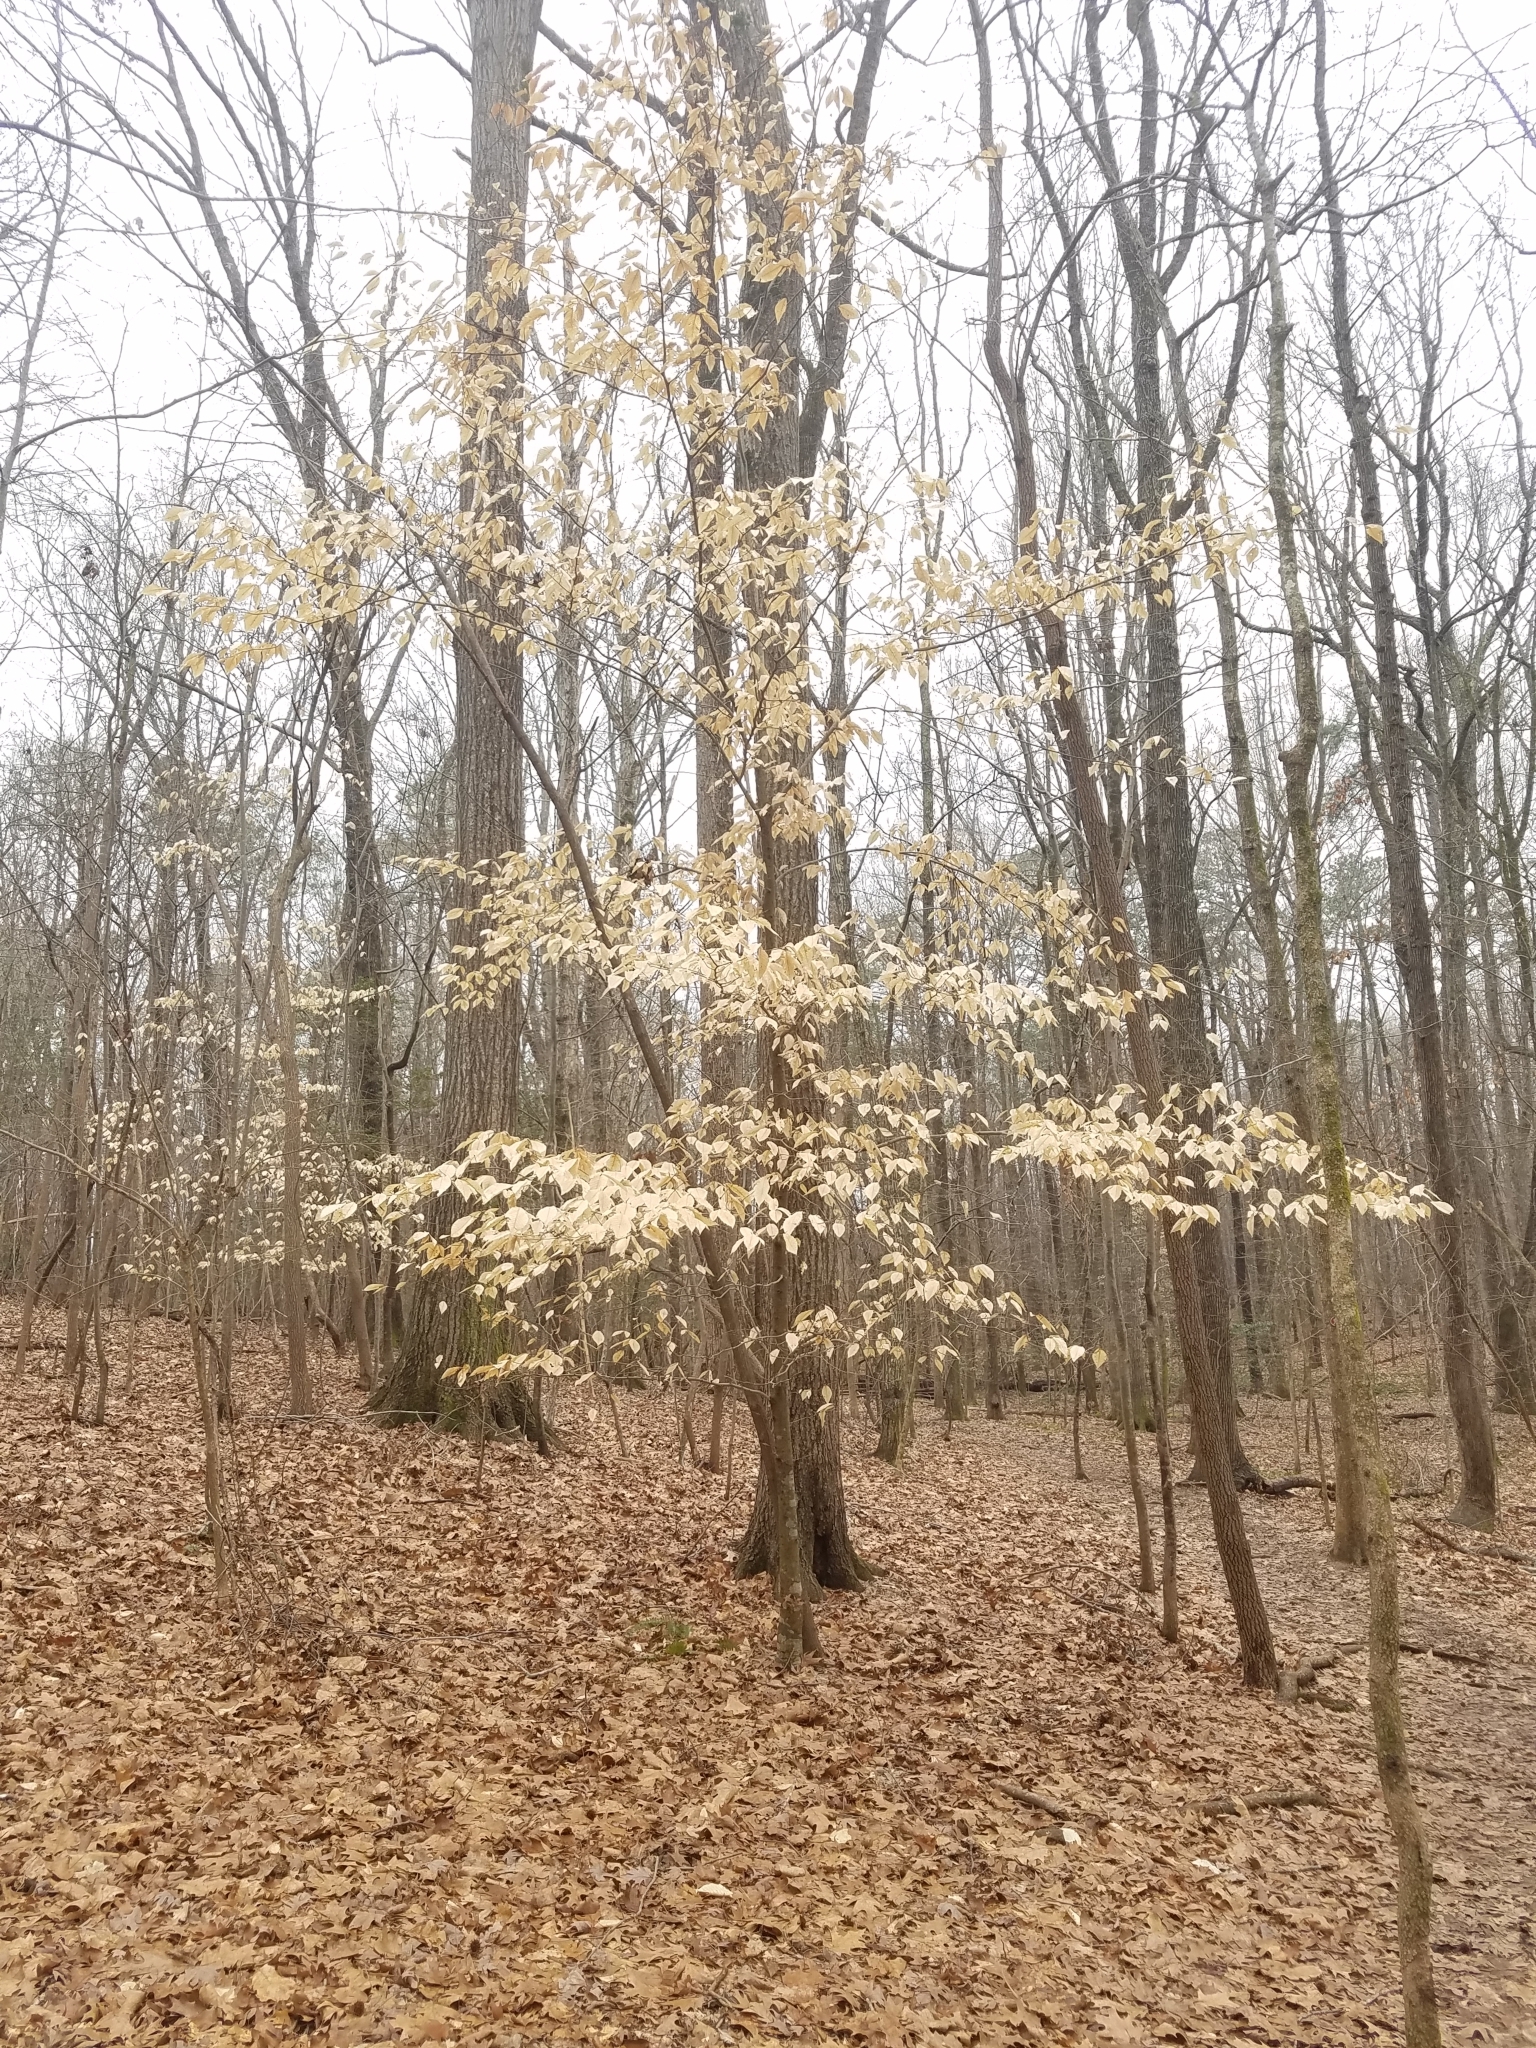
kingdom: Plantae
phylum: Tracheophyta
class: Magnoliopsida
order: Fagales
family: Fagaceae
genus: Fagus
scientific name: Fagus grandifolia
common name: American beech
